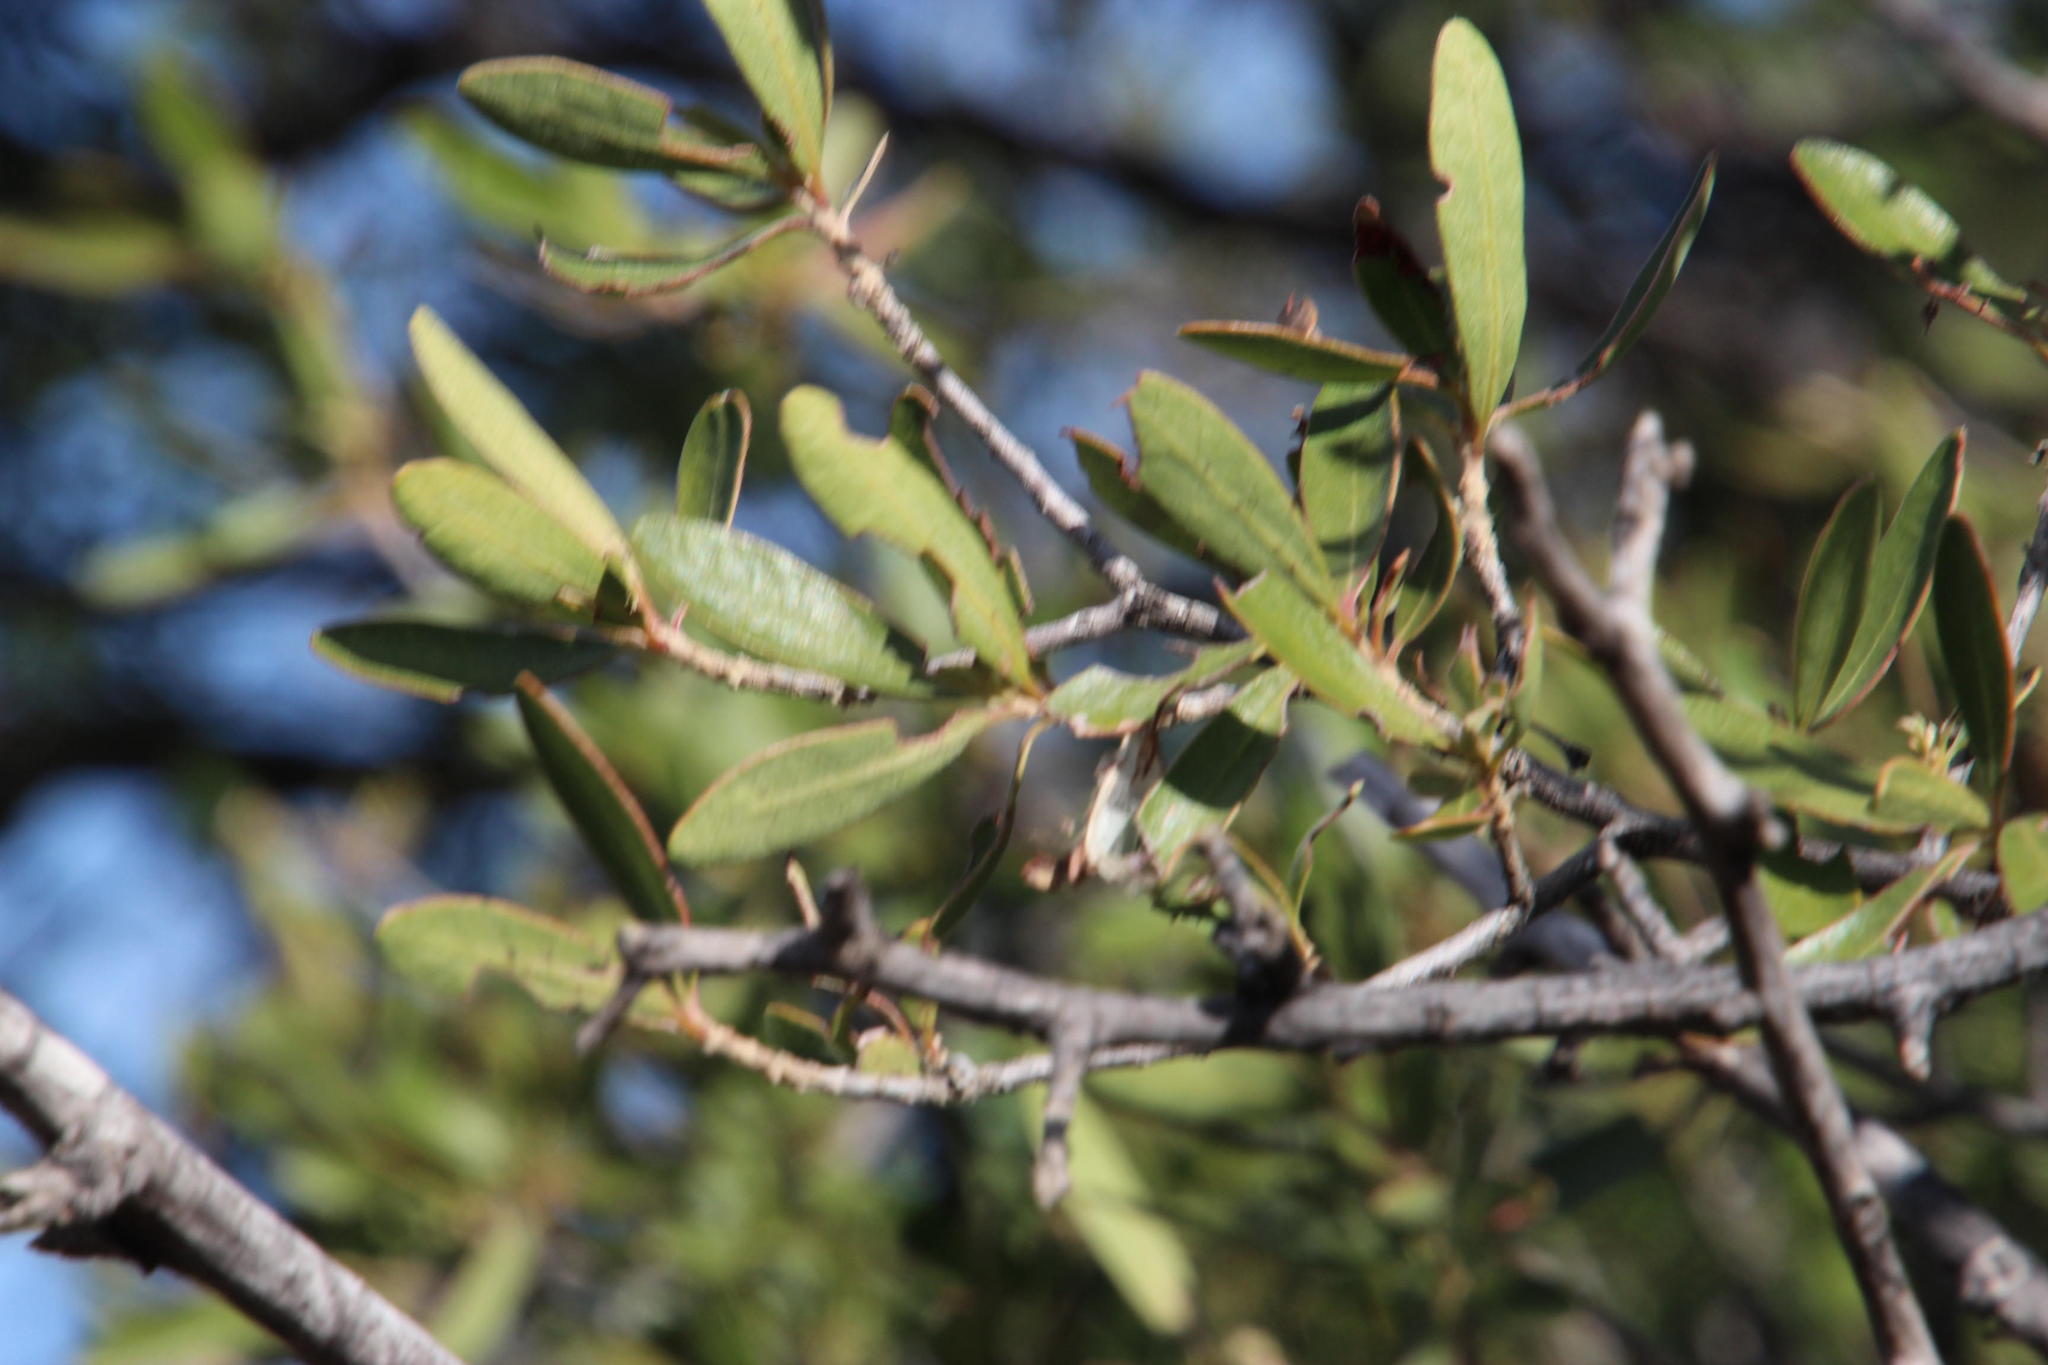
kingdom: Plantae
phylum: Tracheophyta
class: Magnoliopsida
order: Ericales
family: Ebenaceae
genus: Diospyros
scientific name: Diospyros lycioides
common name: Red star apple
